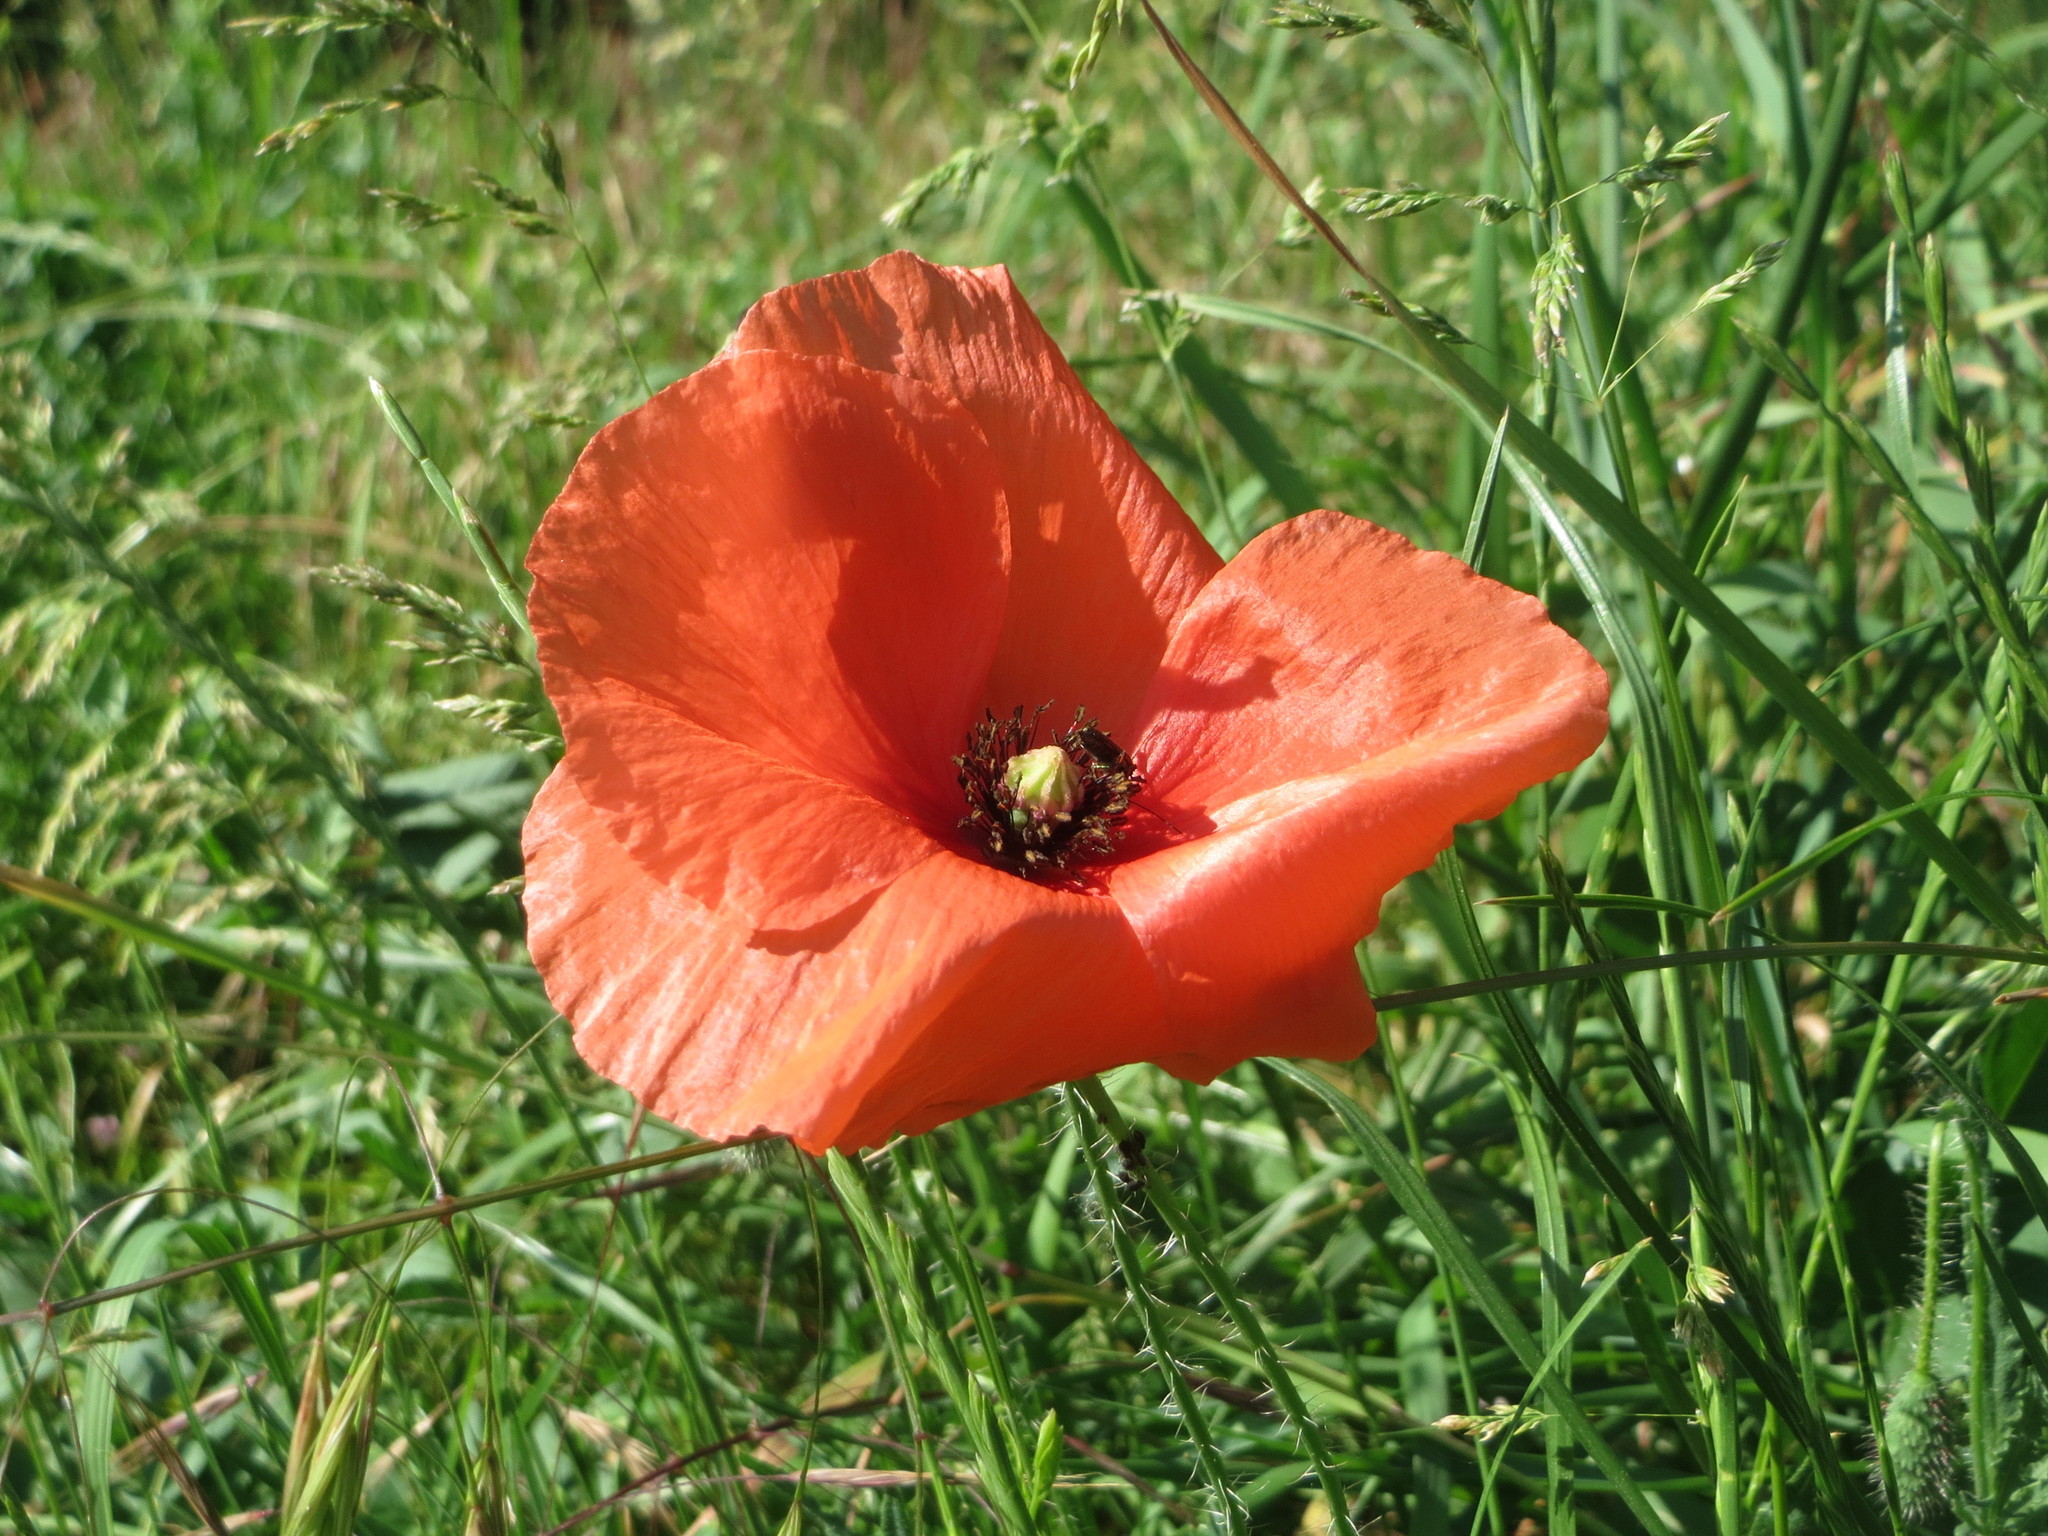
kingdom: Plantae
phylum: Tracheophyta
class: Magnoliopsida
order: Ranunculales
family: Papaveraceae
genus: Papaver
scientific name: Papaver rhoeas
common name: Corn poppy
